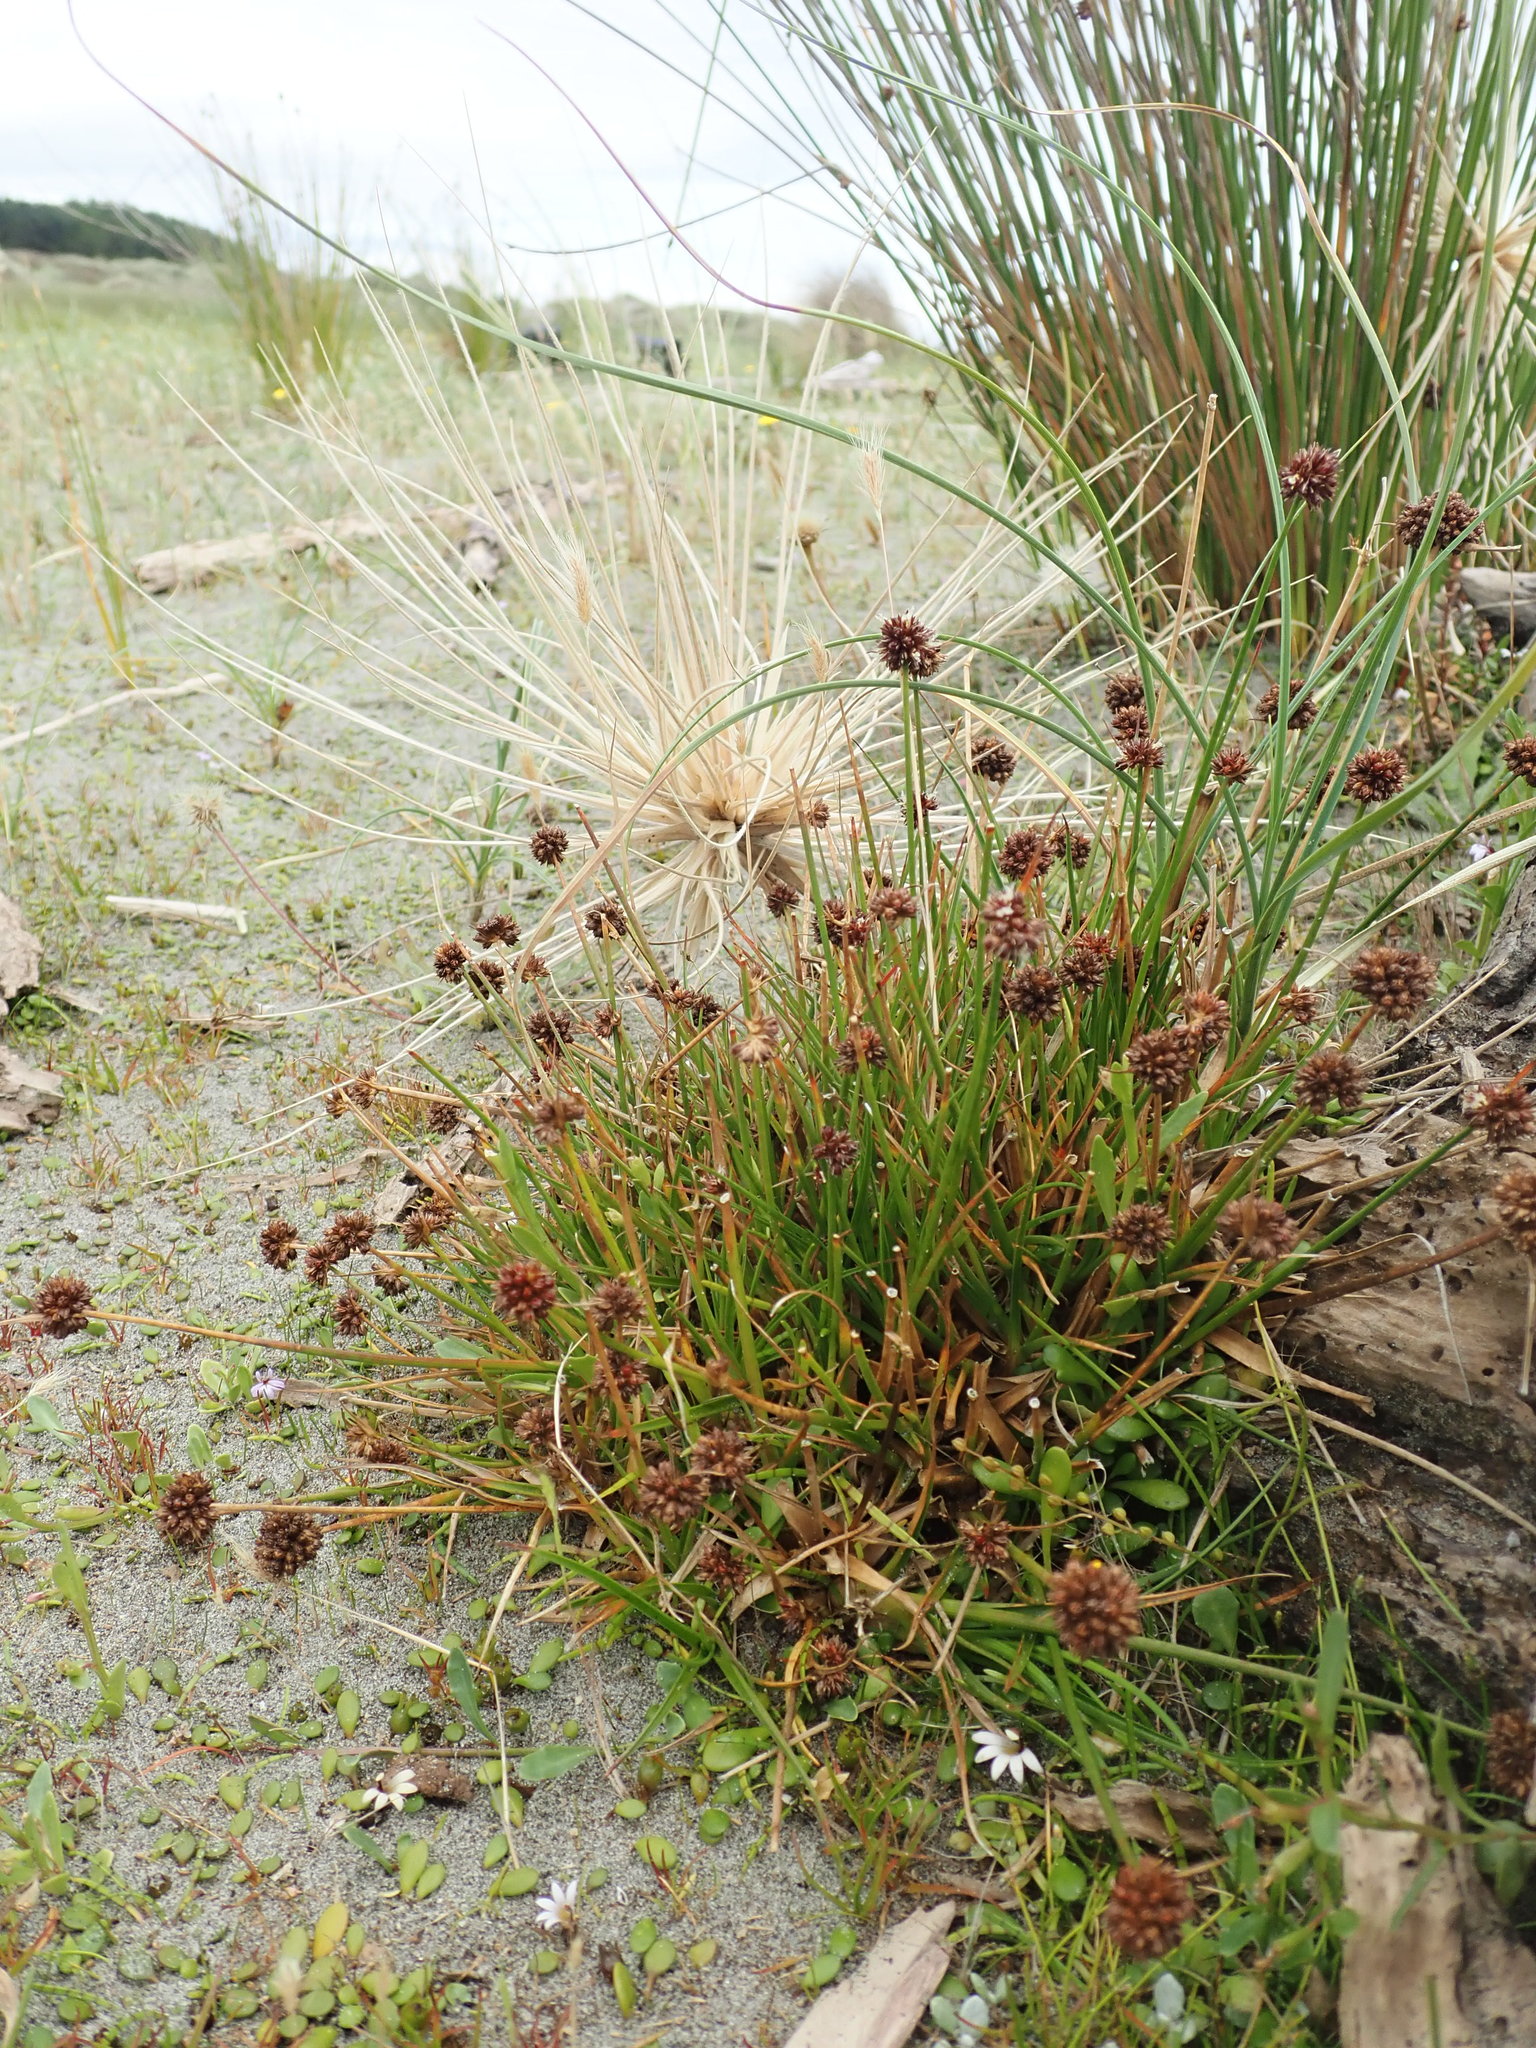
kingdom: Plantae
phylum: Tracheophyta
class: Liliopsida
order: Poales
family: Juncaceae
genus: Juncus
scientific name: Juncus caespiticius
